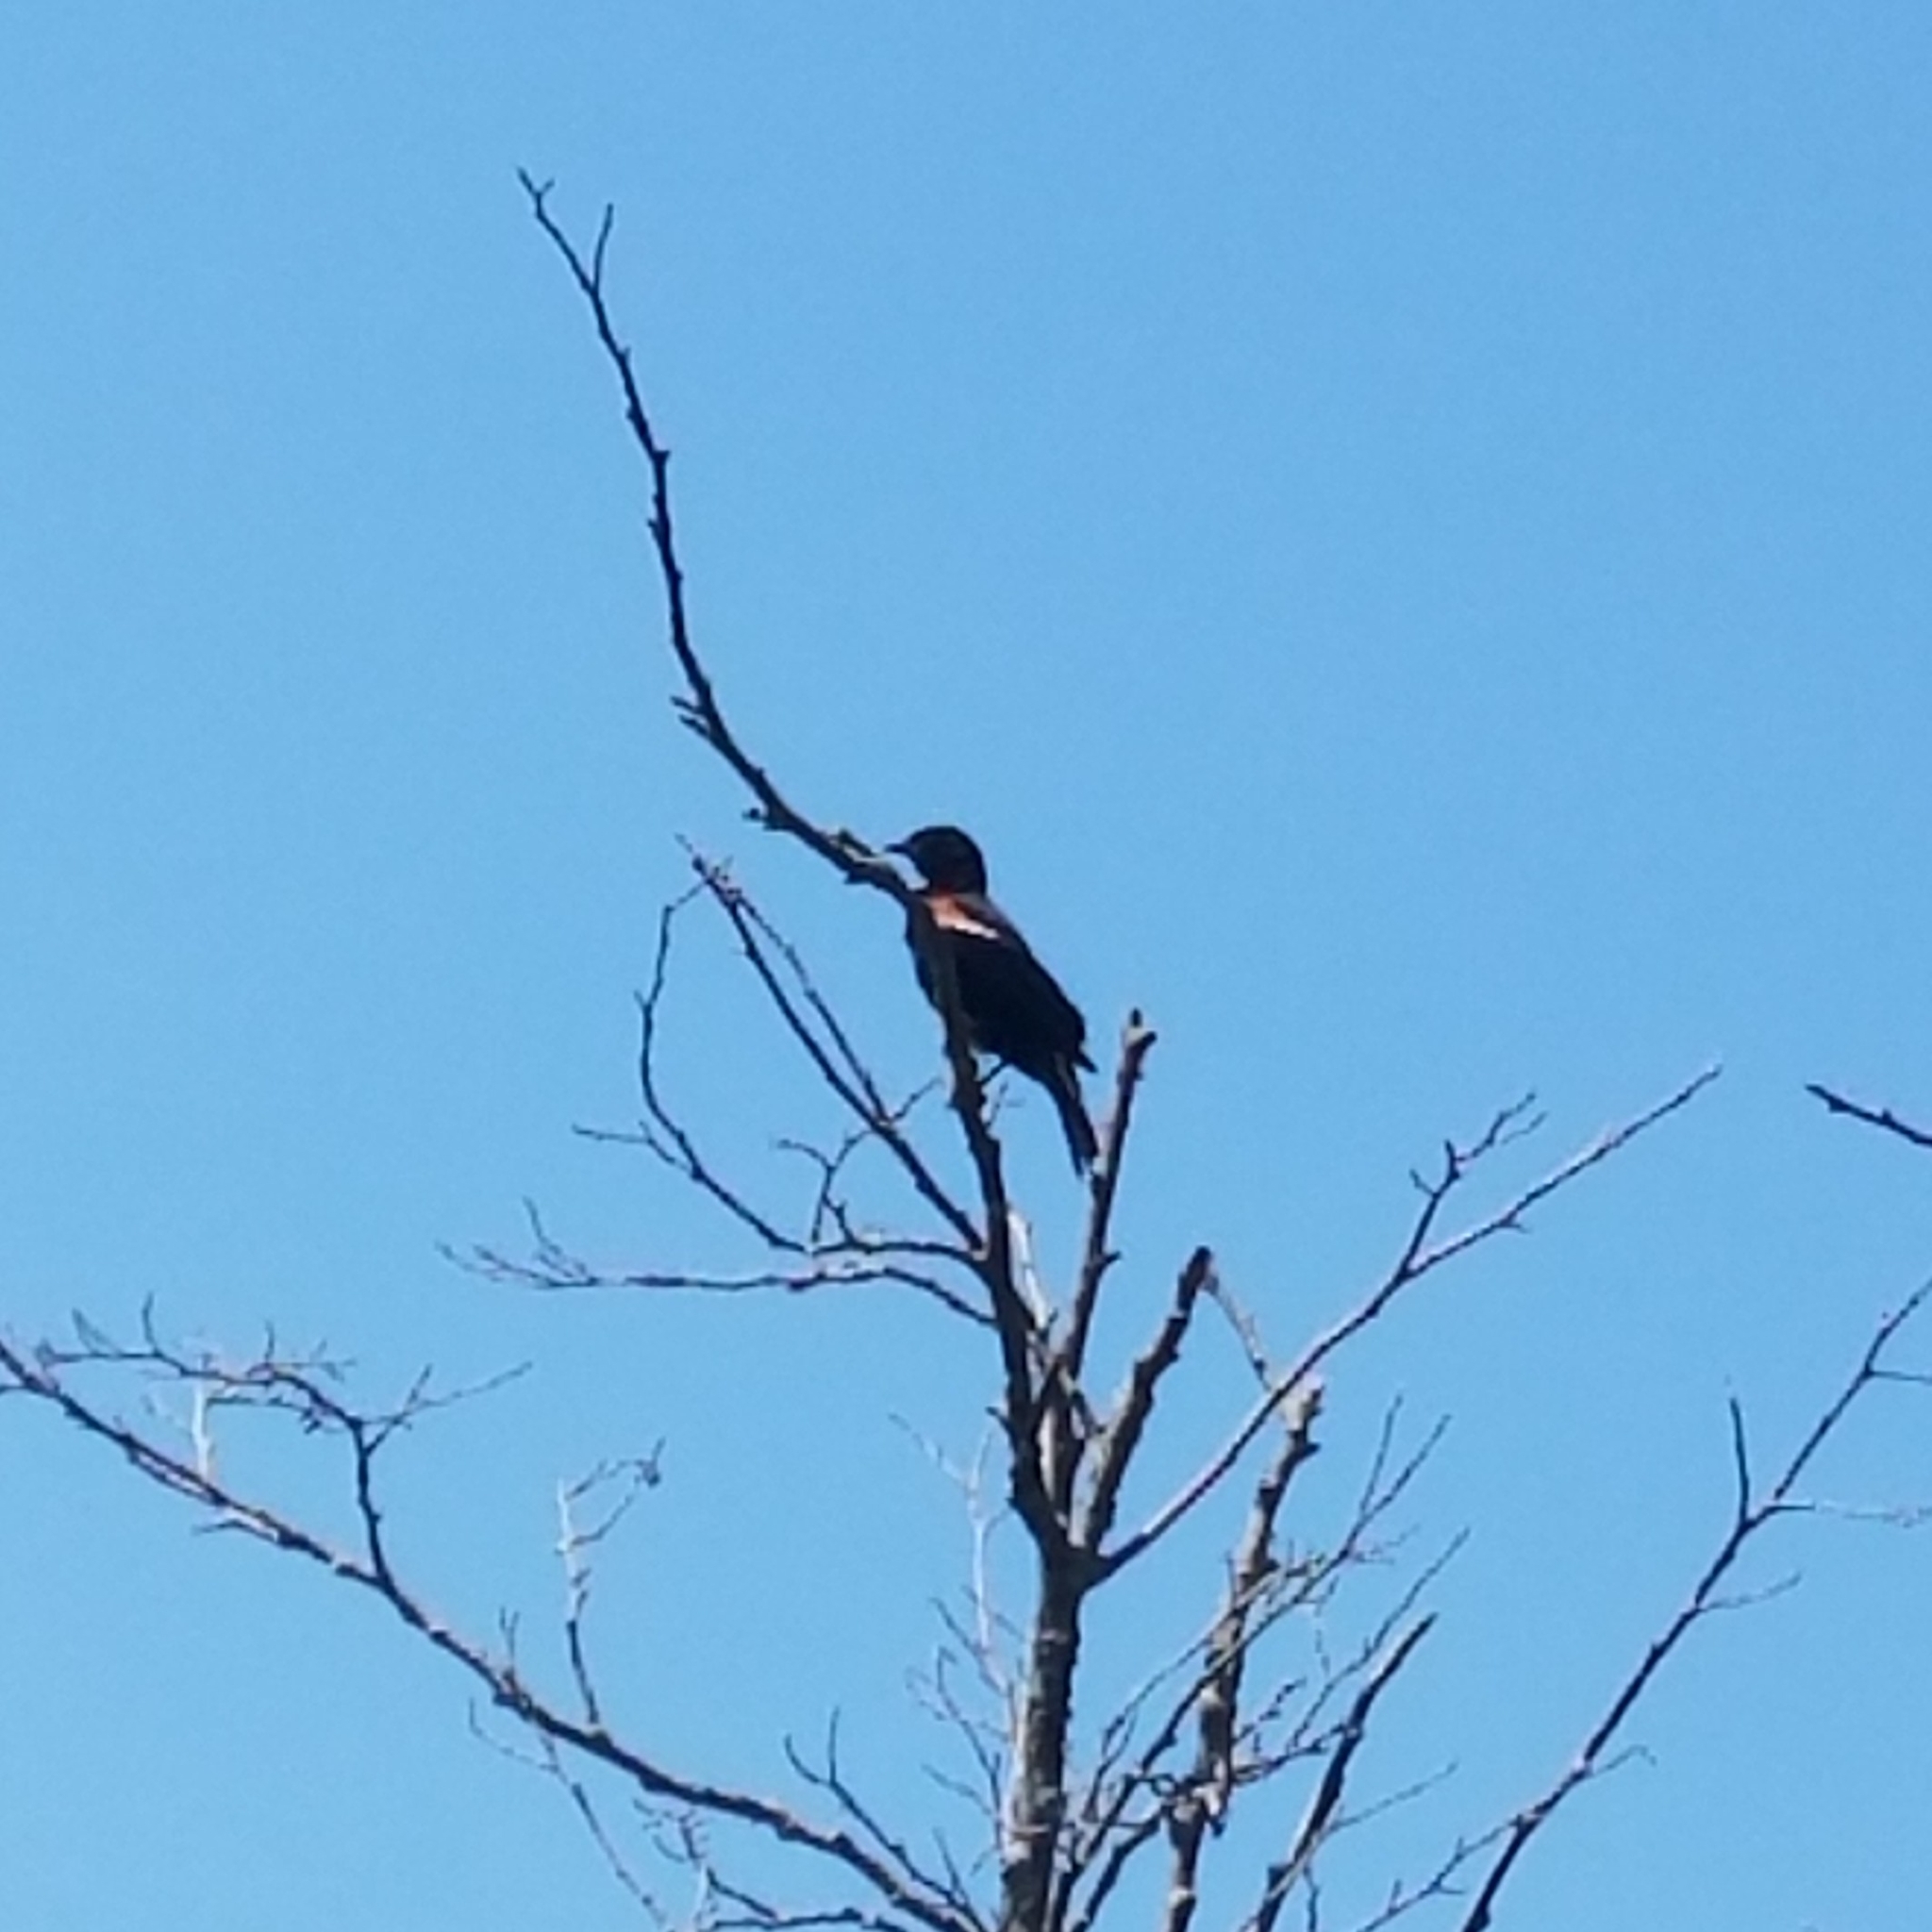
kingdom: Animalia
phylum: Chordata
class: Aves
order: Passeriformes
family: Icteridae
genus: Agelaius
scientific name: Agelaius phoeniceus
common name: Red-winged blackbird
